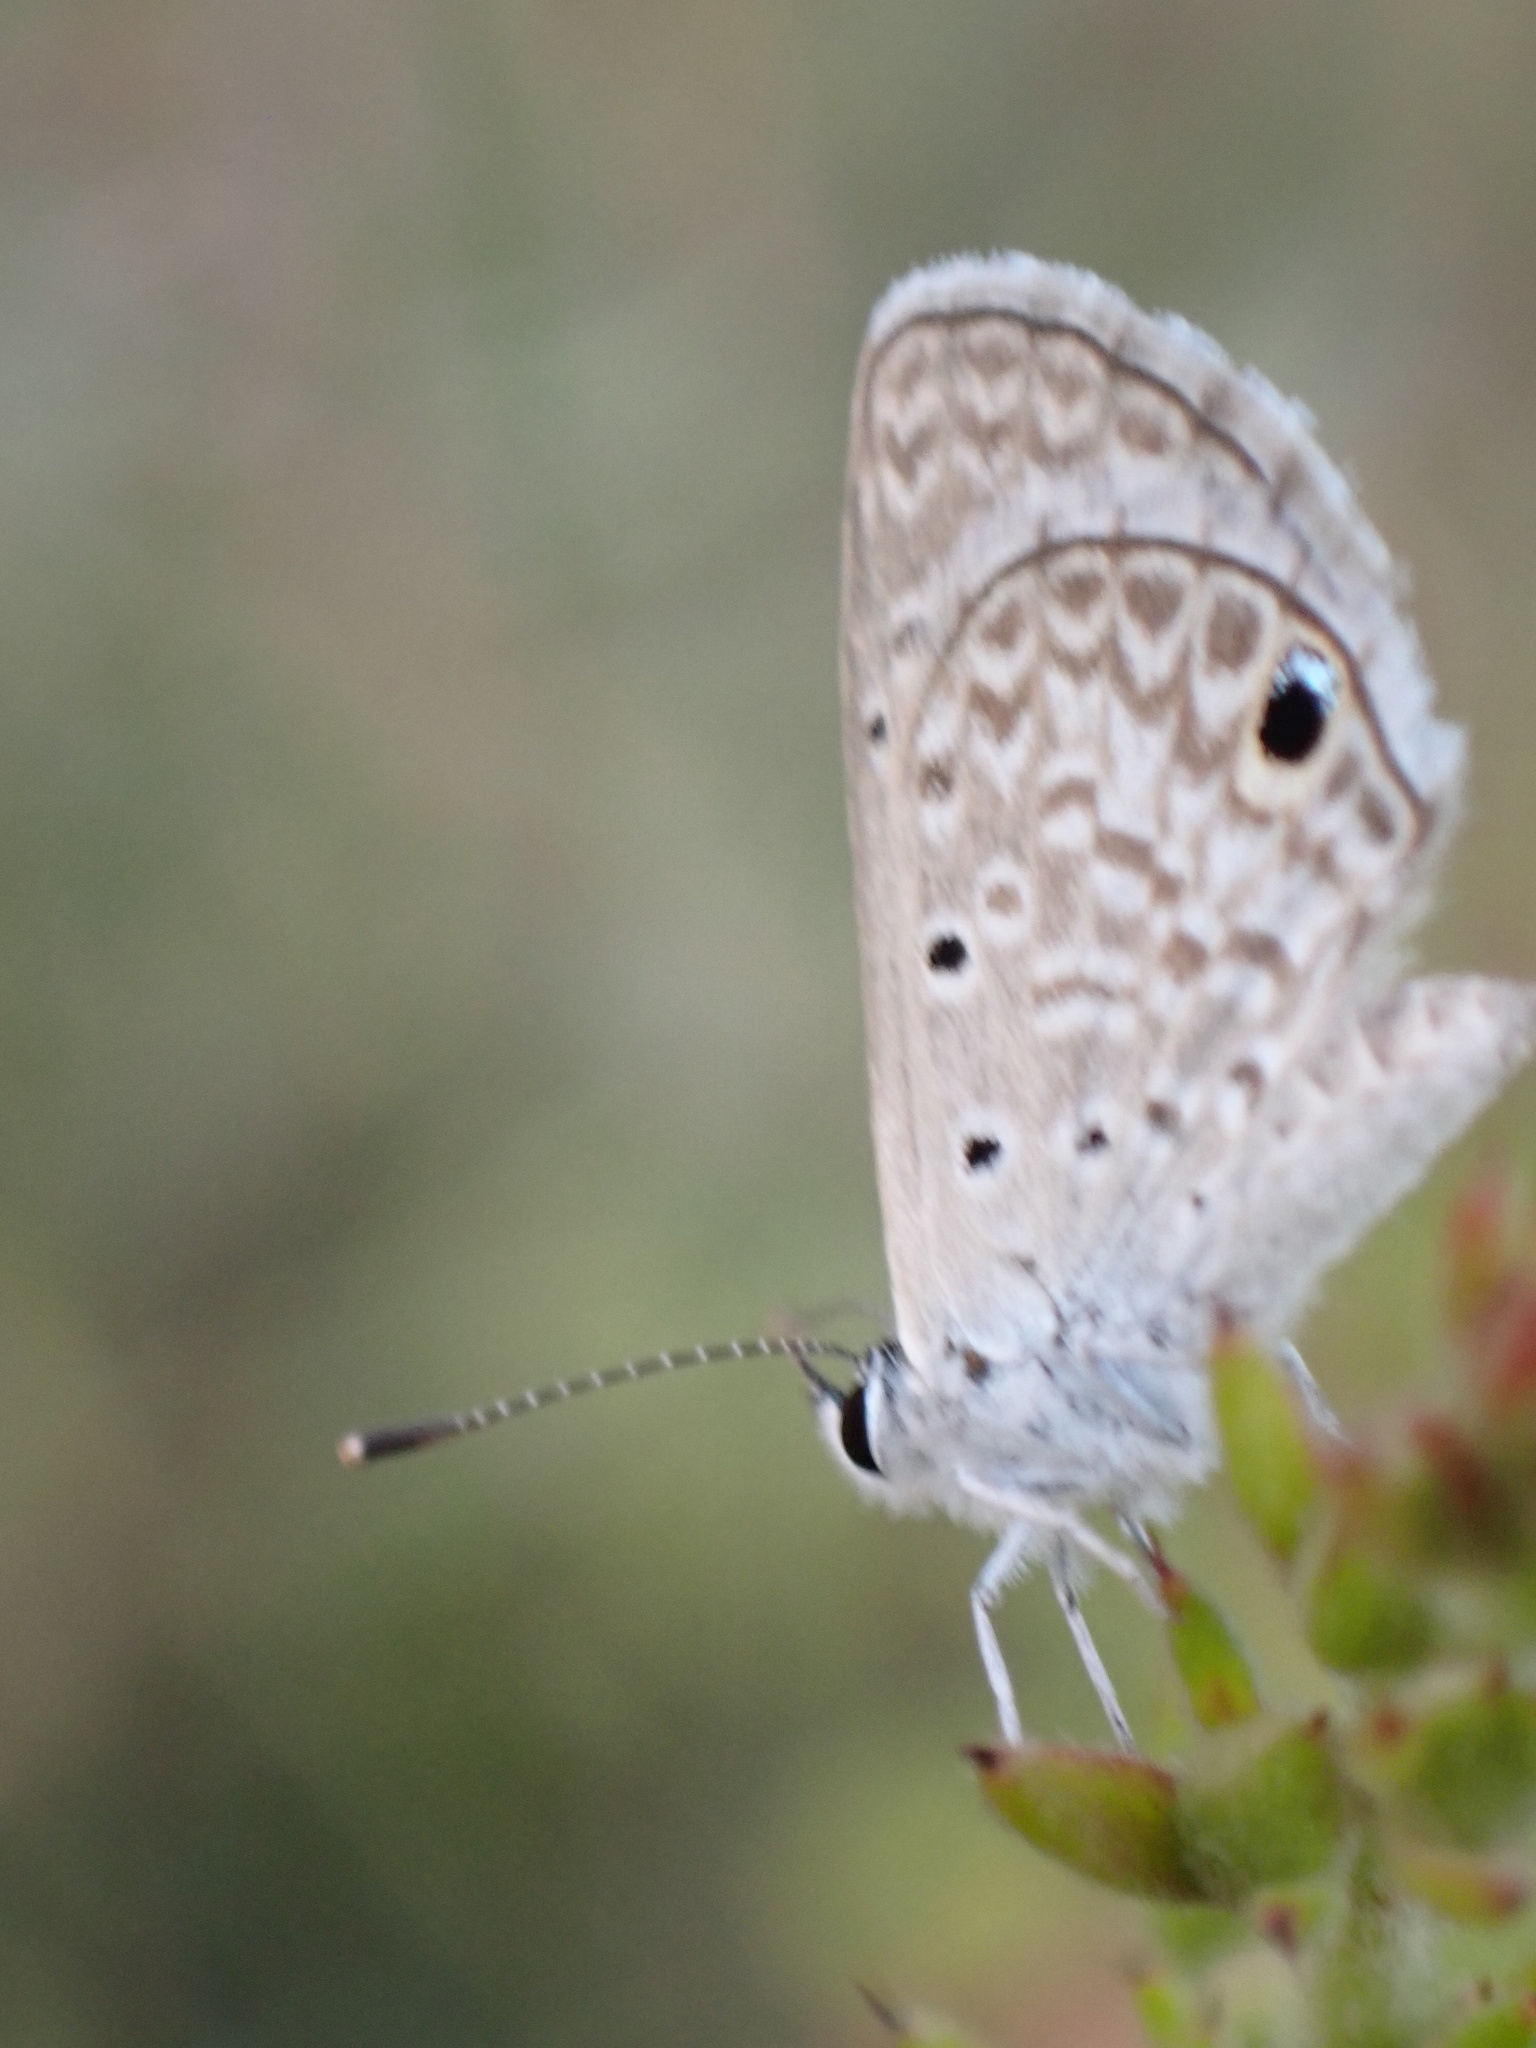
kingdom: Animalia
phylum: Arthropoda
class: Insecta
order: Lepidoptera
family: Lycaenidae
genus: Hemiargus
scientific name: Hemiargus hanno
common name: Common blue
